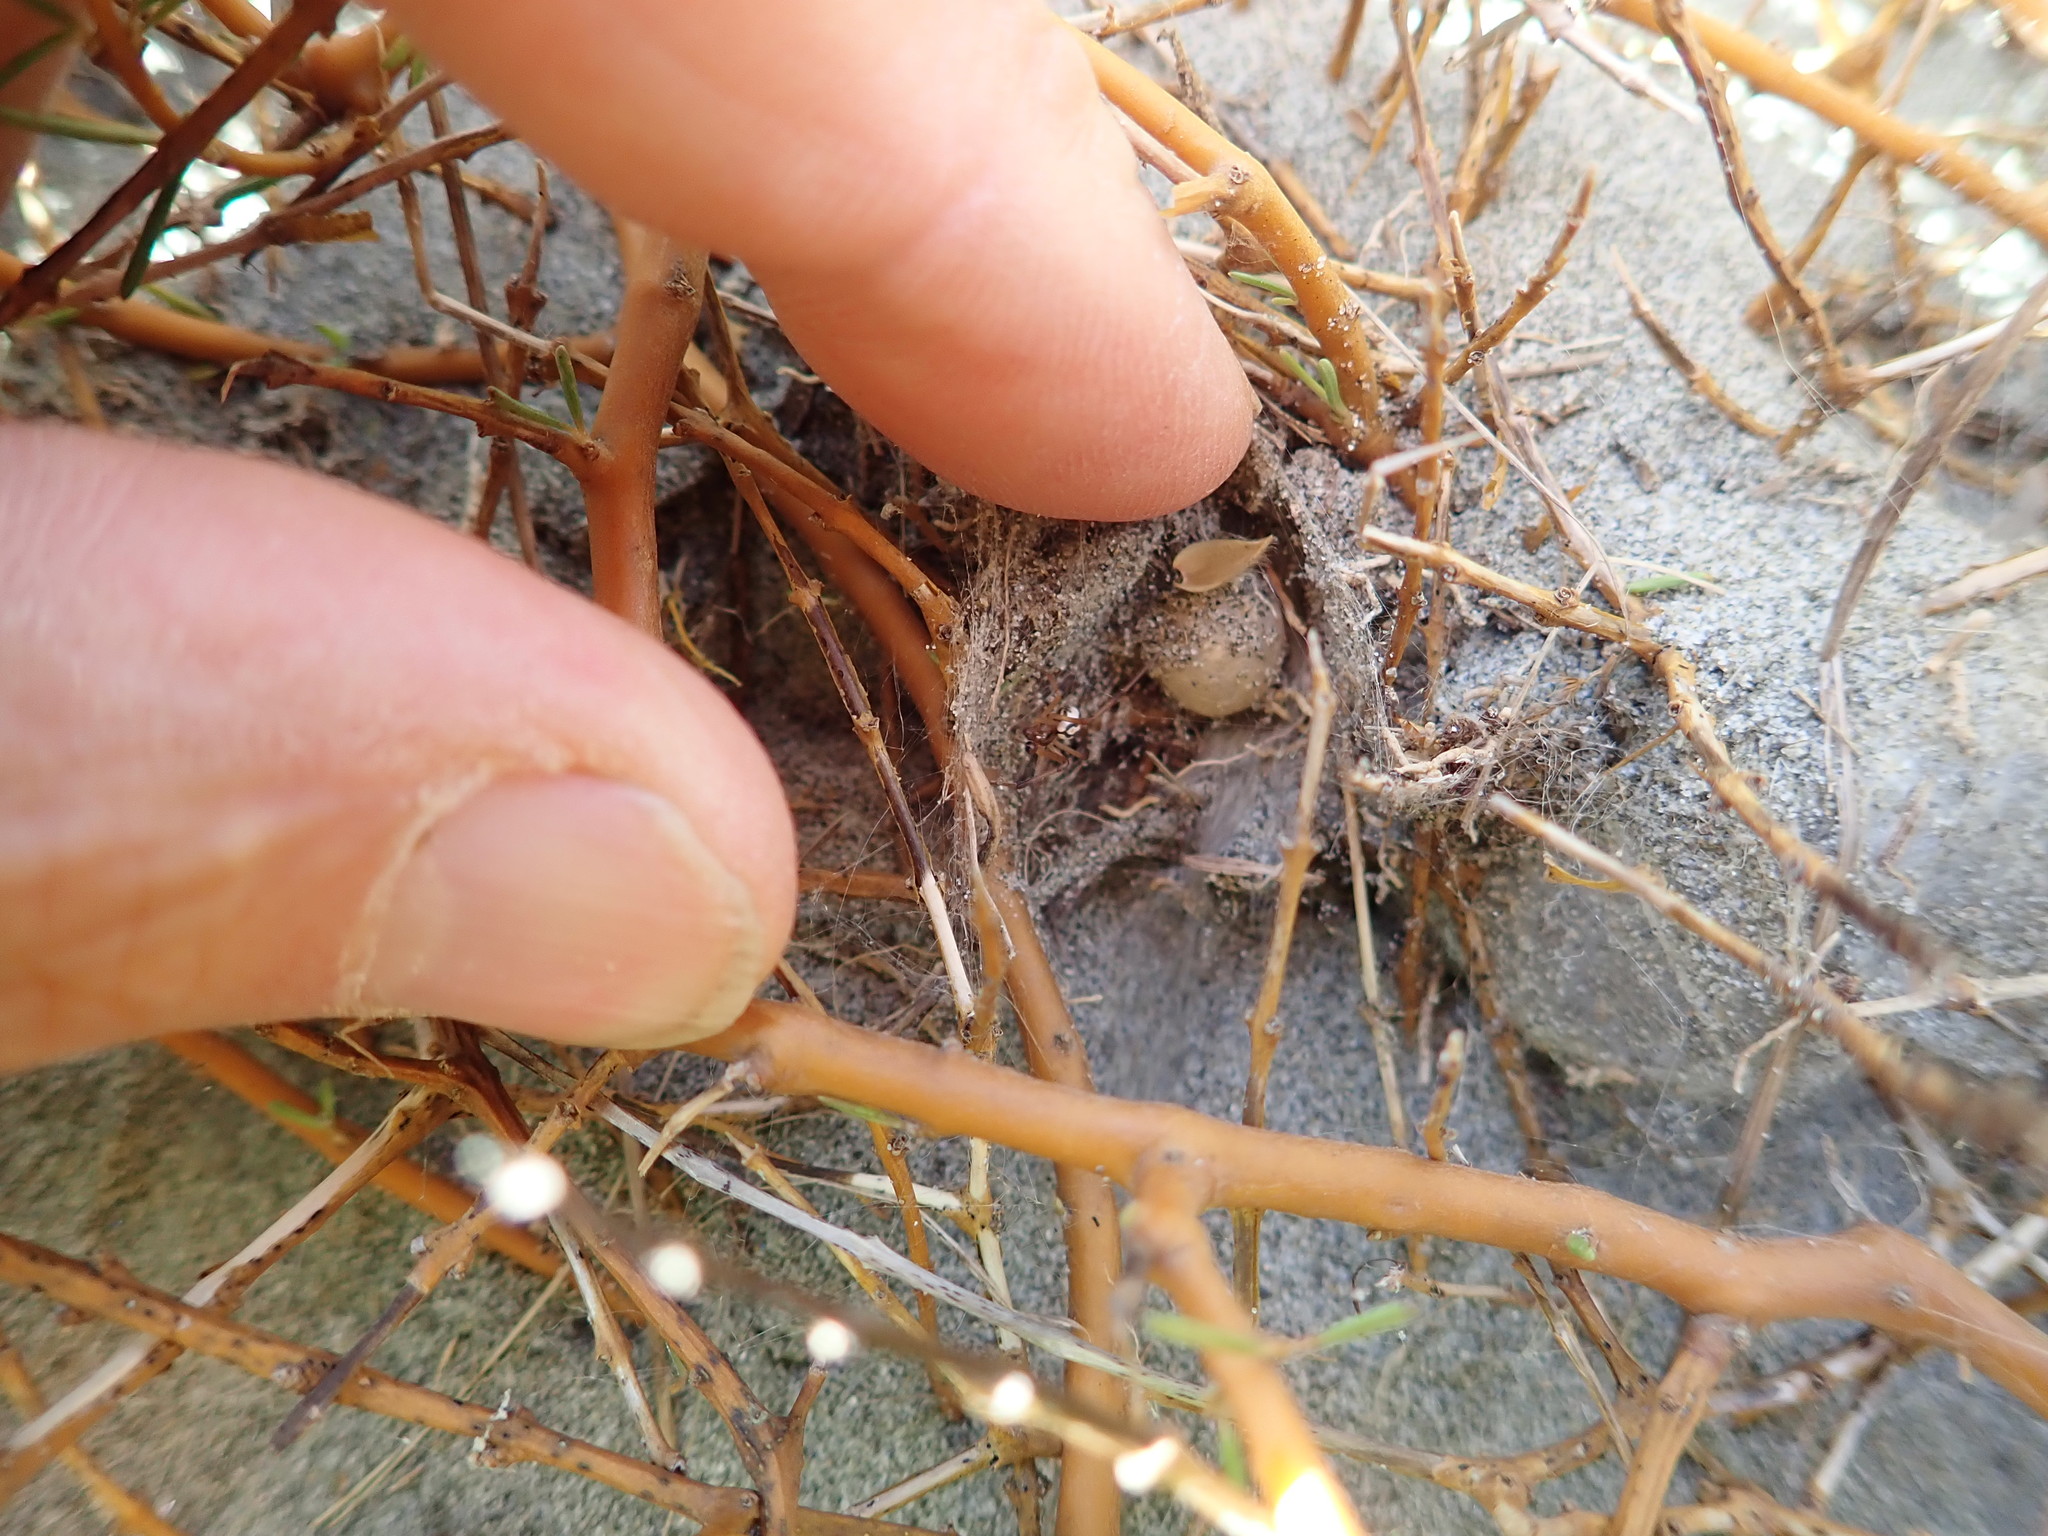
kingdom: Animalia
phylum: Arthropoda
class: Arachnida
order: Araneae
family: Theridiidae
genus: Latrodectus
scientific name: Latrodectus katipo
